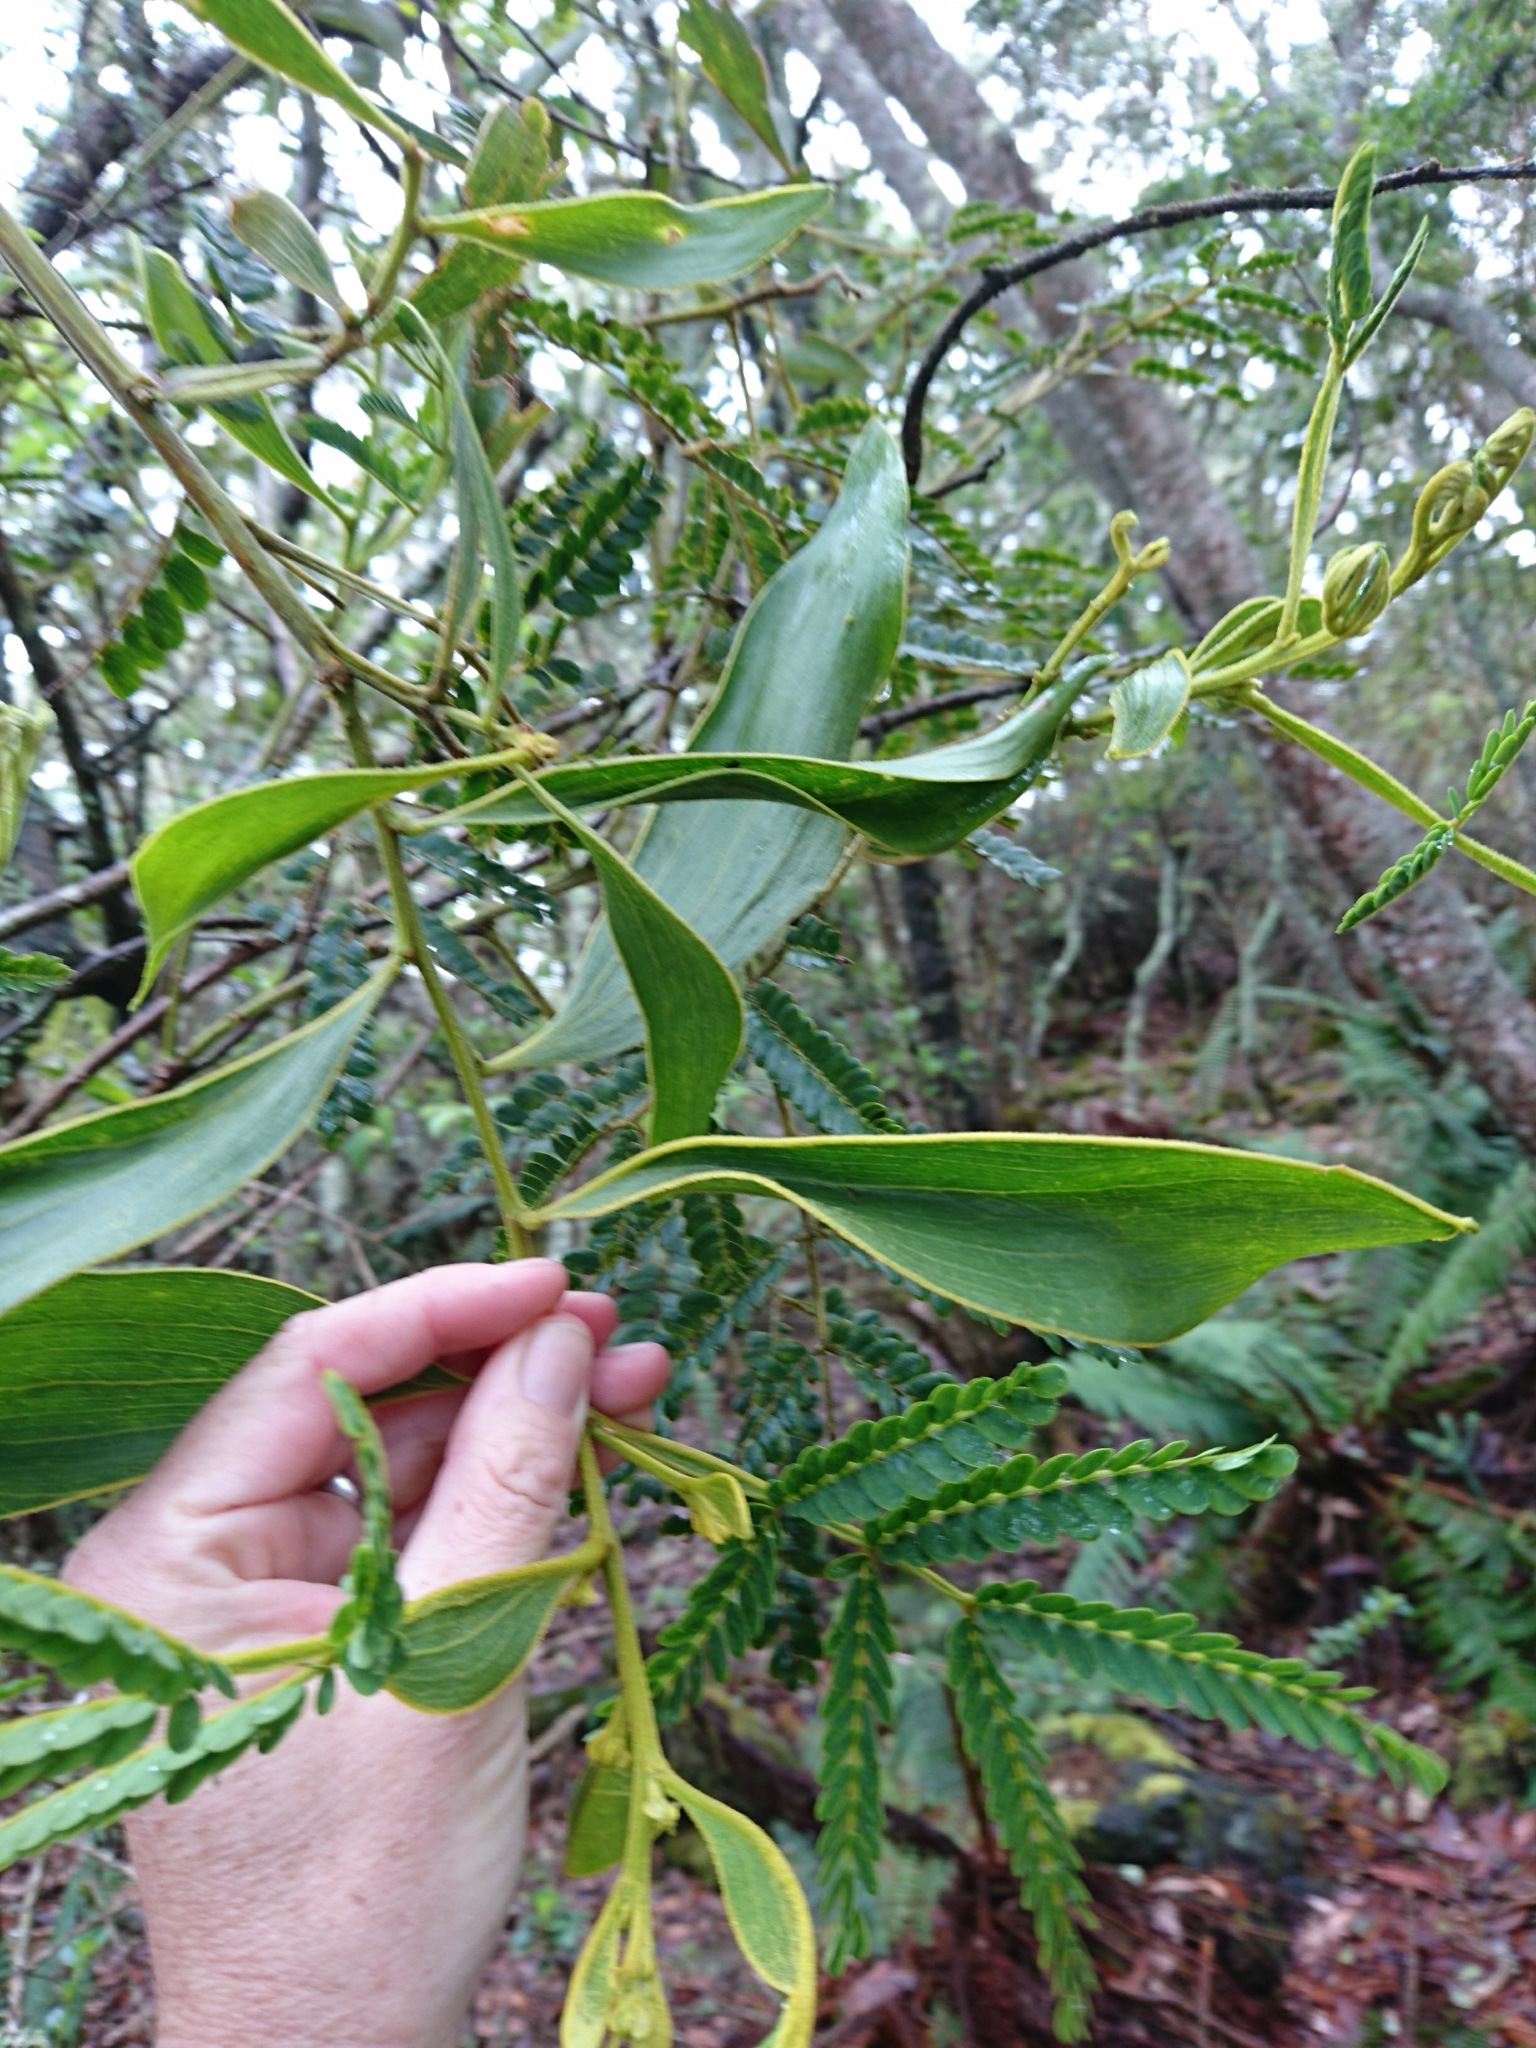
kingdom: Plantae
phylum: Tracheophyta
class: Magnoliopsida
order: Fabales
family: Fabaceae
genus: Acacia
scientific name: Acacia koa
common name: Gray koa
